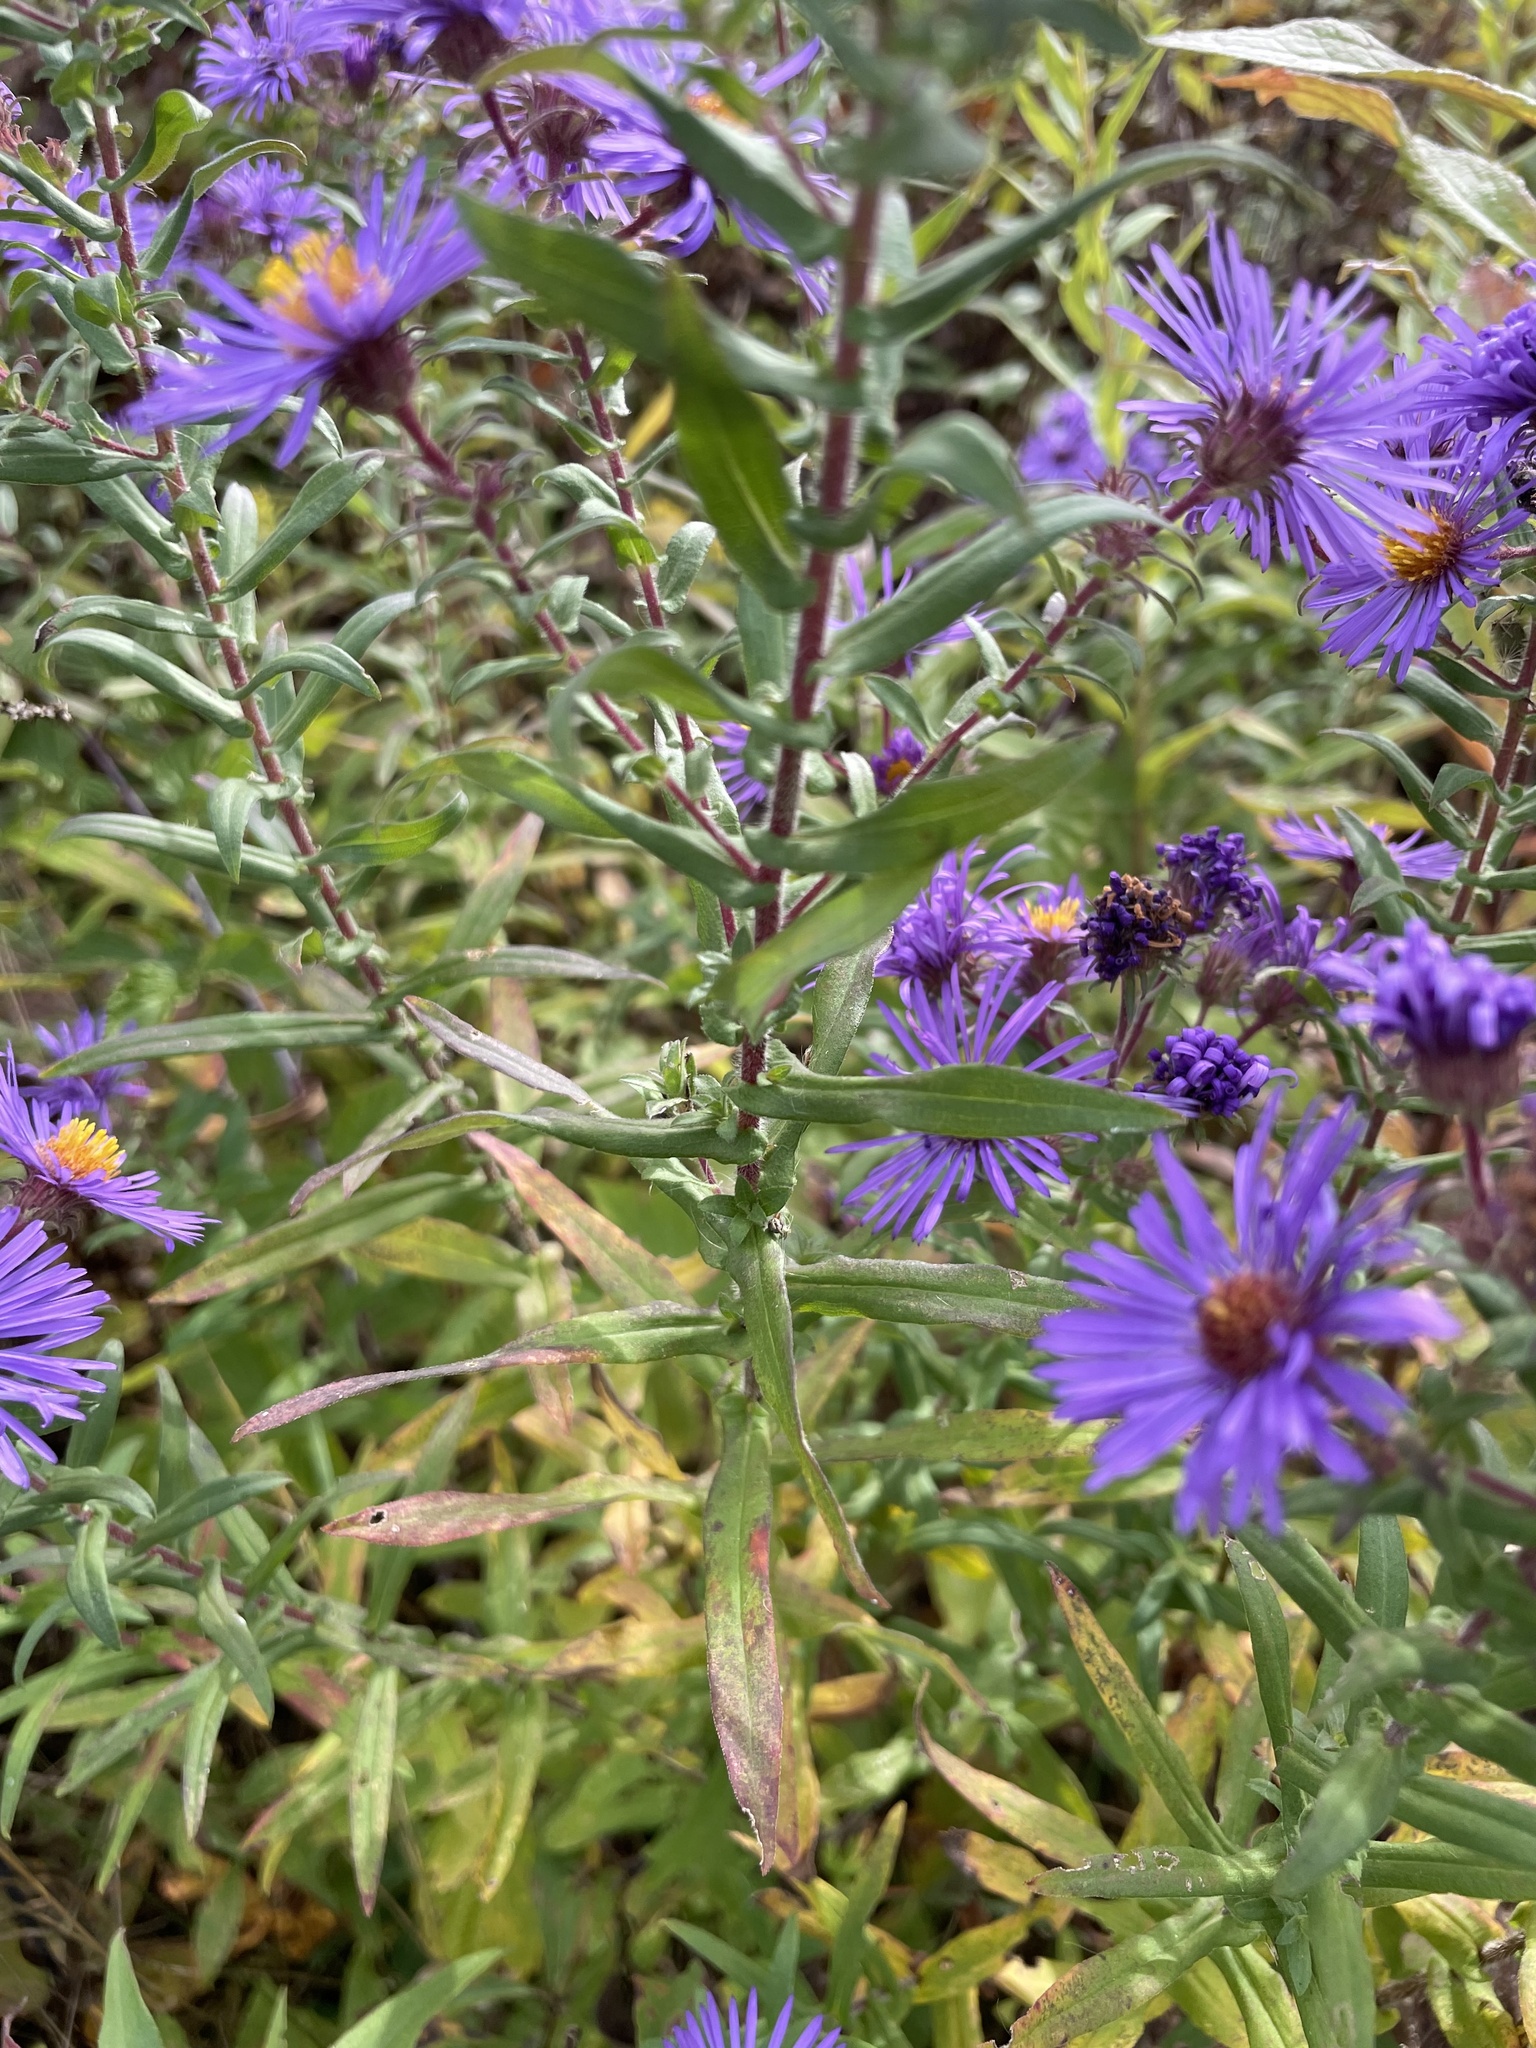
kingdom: Plantae
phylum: Tracheophyta
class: Magnoliopsida
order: Asterales
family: Asteraceae
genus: Symphyotrichum
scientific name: Symphyotrichum novae-angliae
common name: Michaelmas daisy
